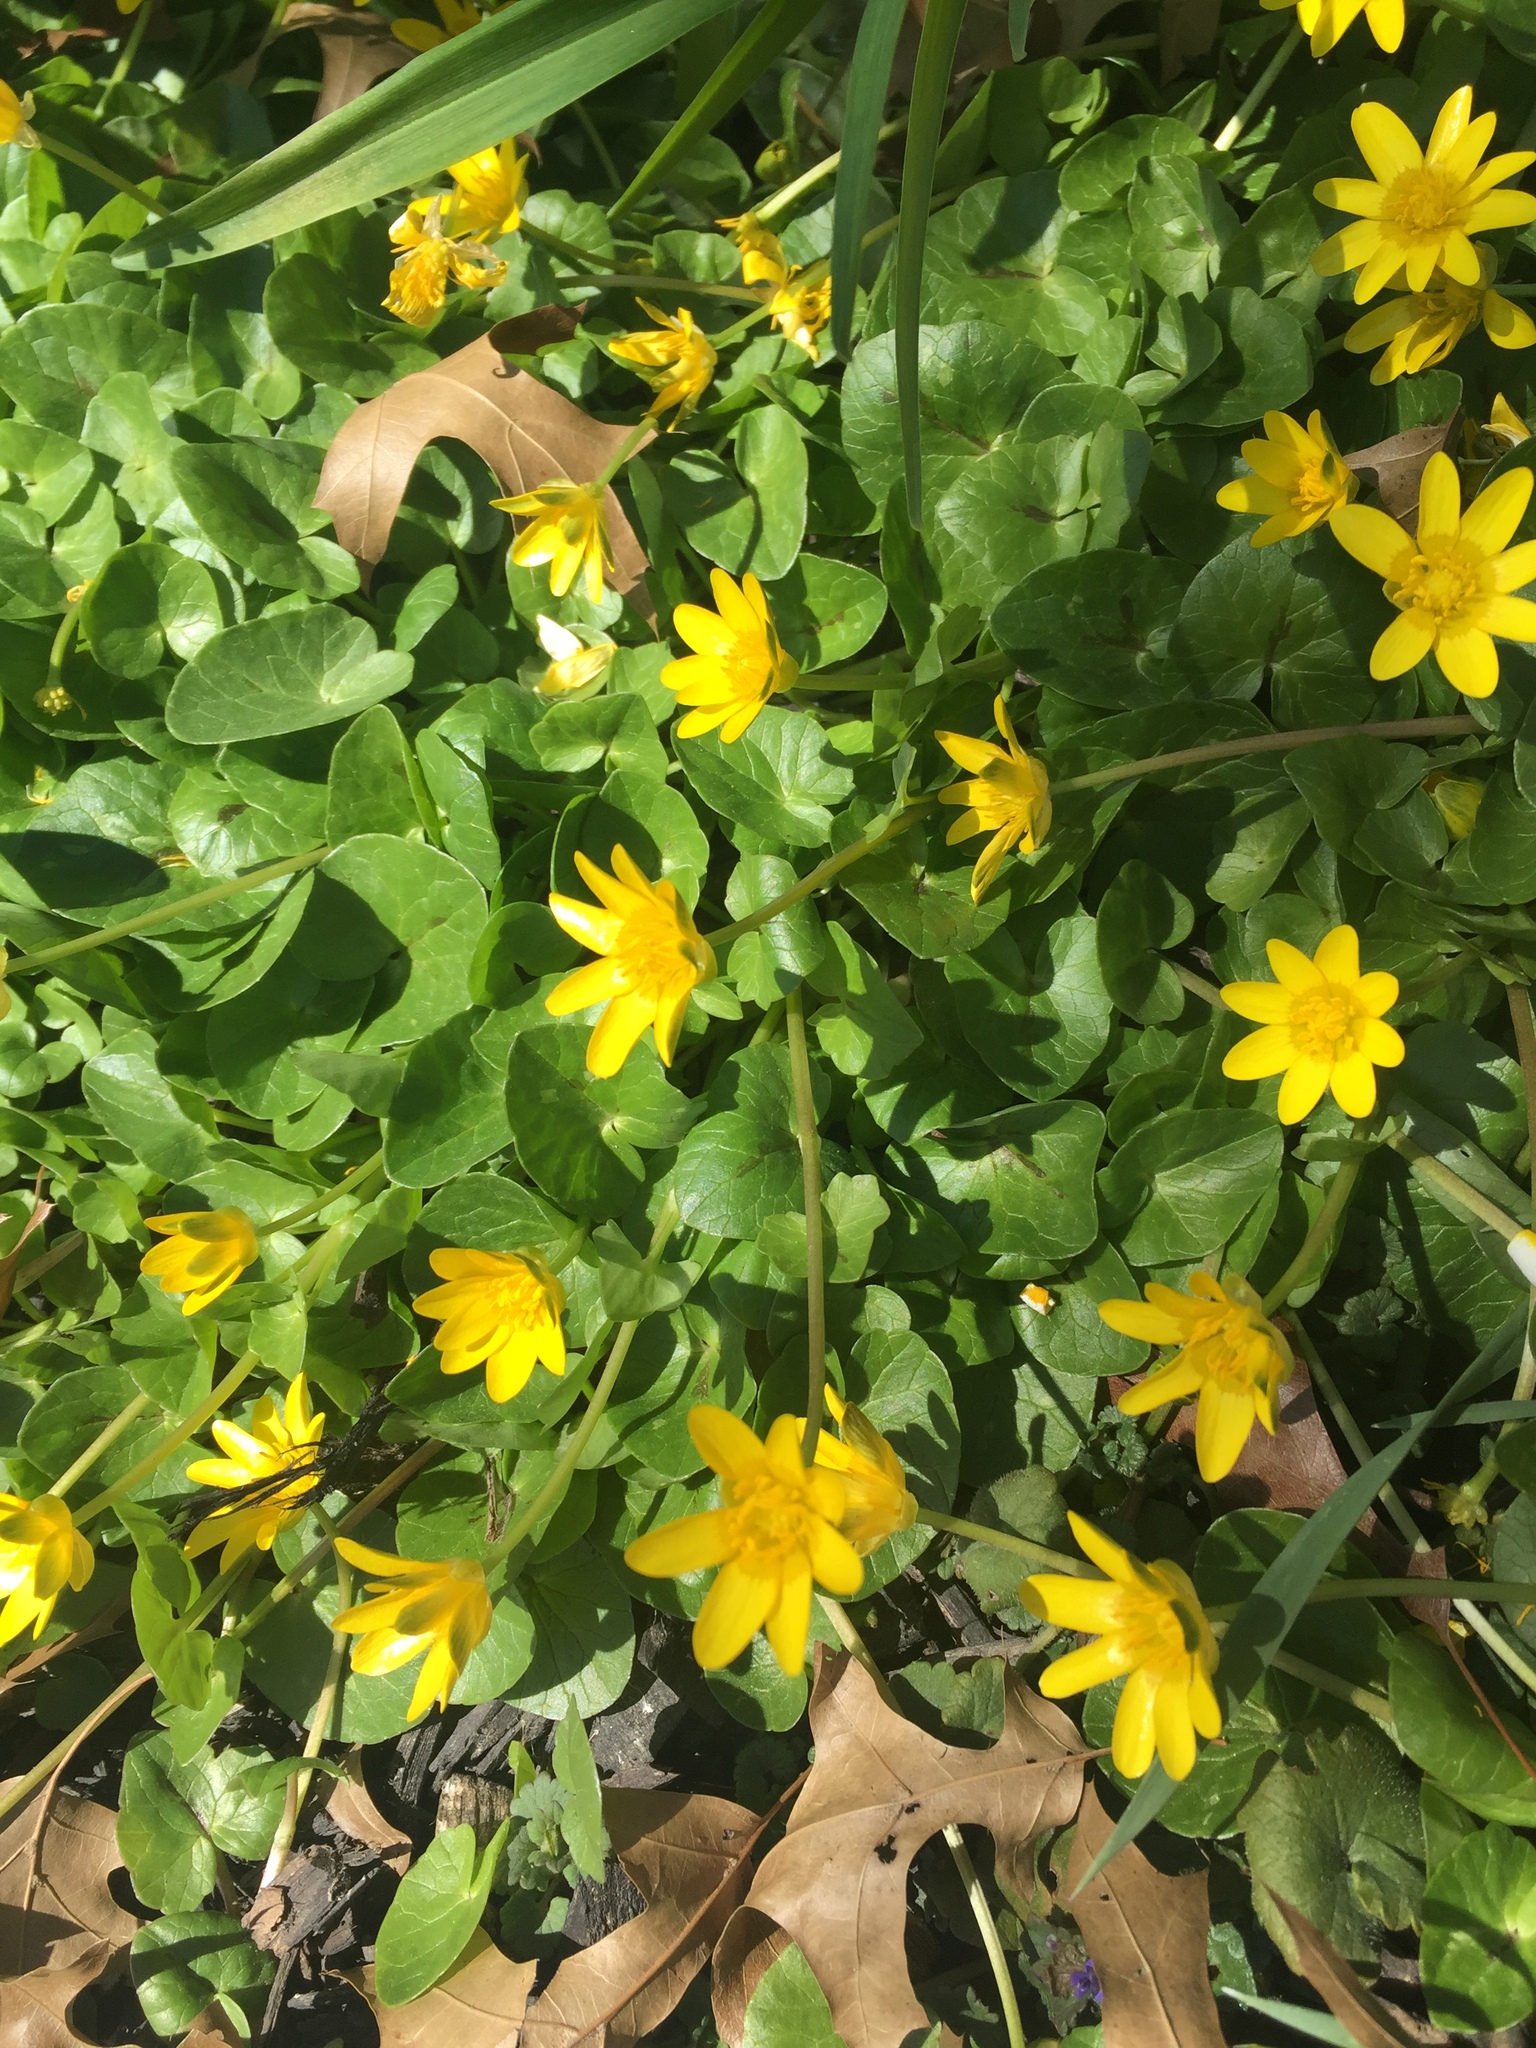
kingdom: Plantae
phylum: Tracheophyta
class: Magnoliopsida
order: Ranunculales
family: Ranunculaceae
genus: Ficaria
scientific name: Ficaria verna
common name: Lesser celandine
